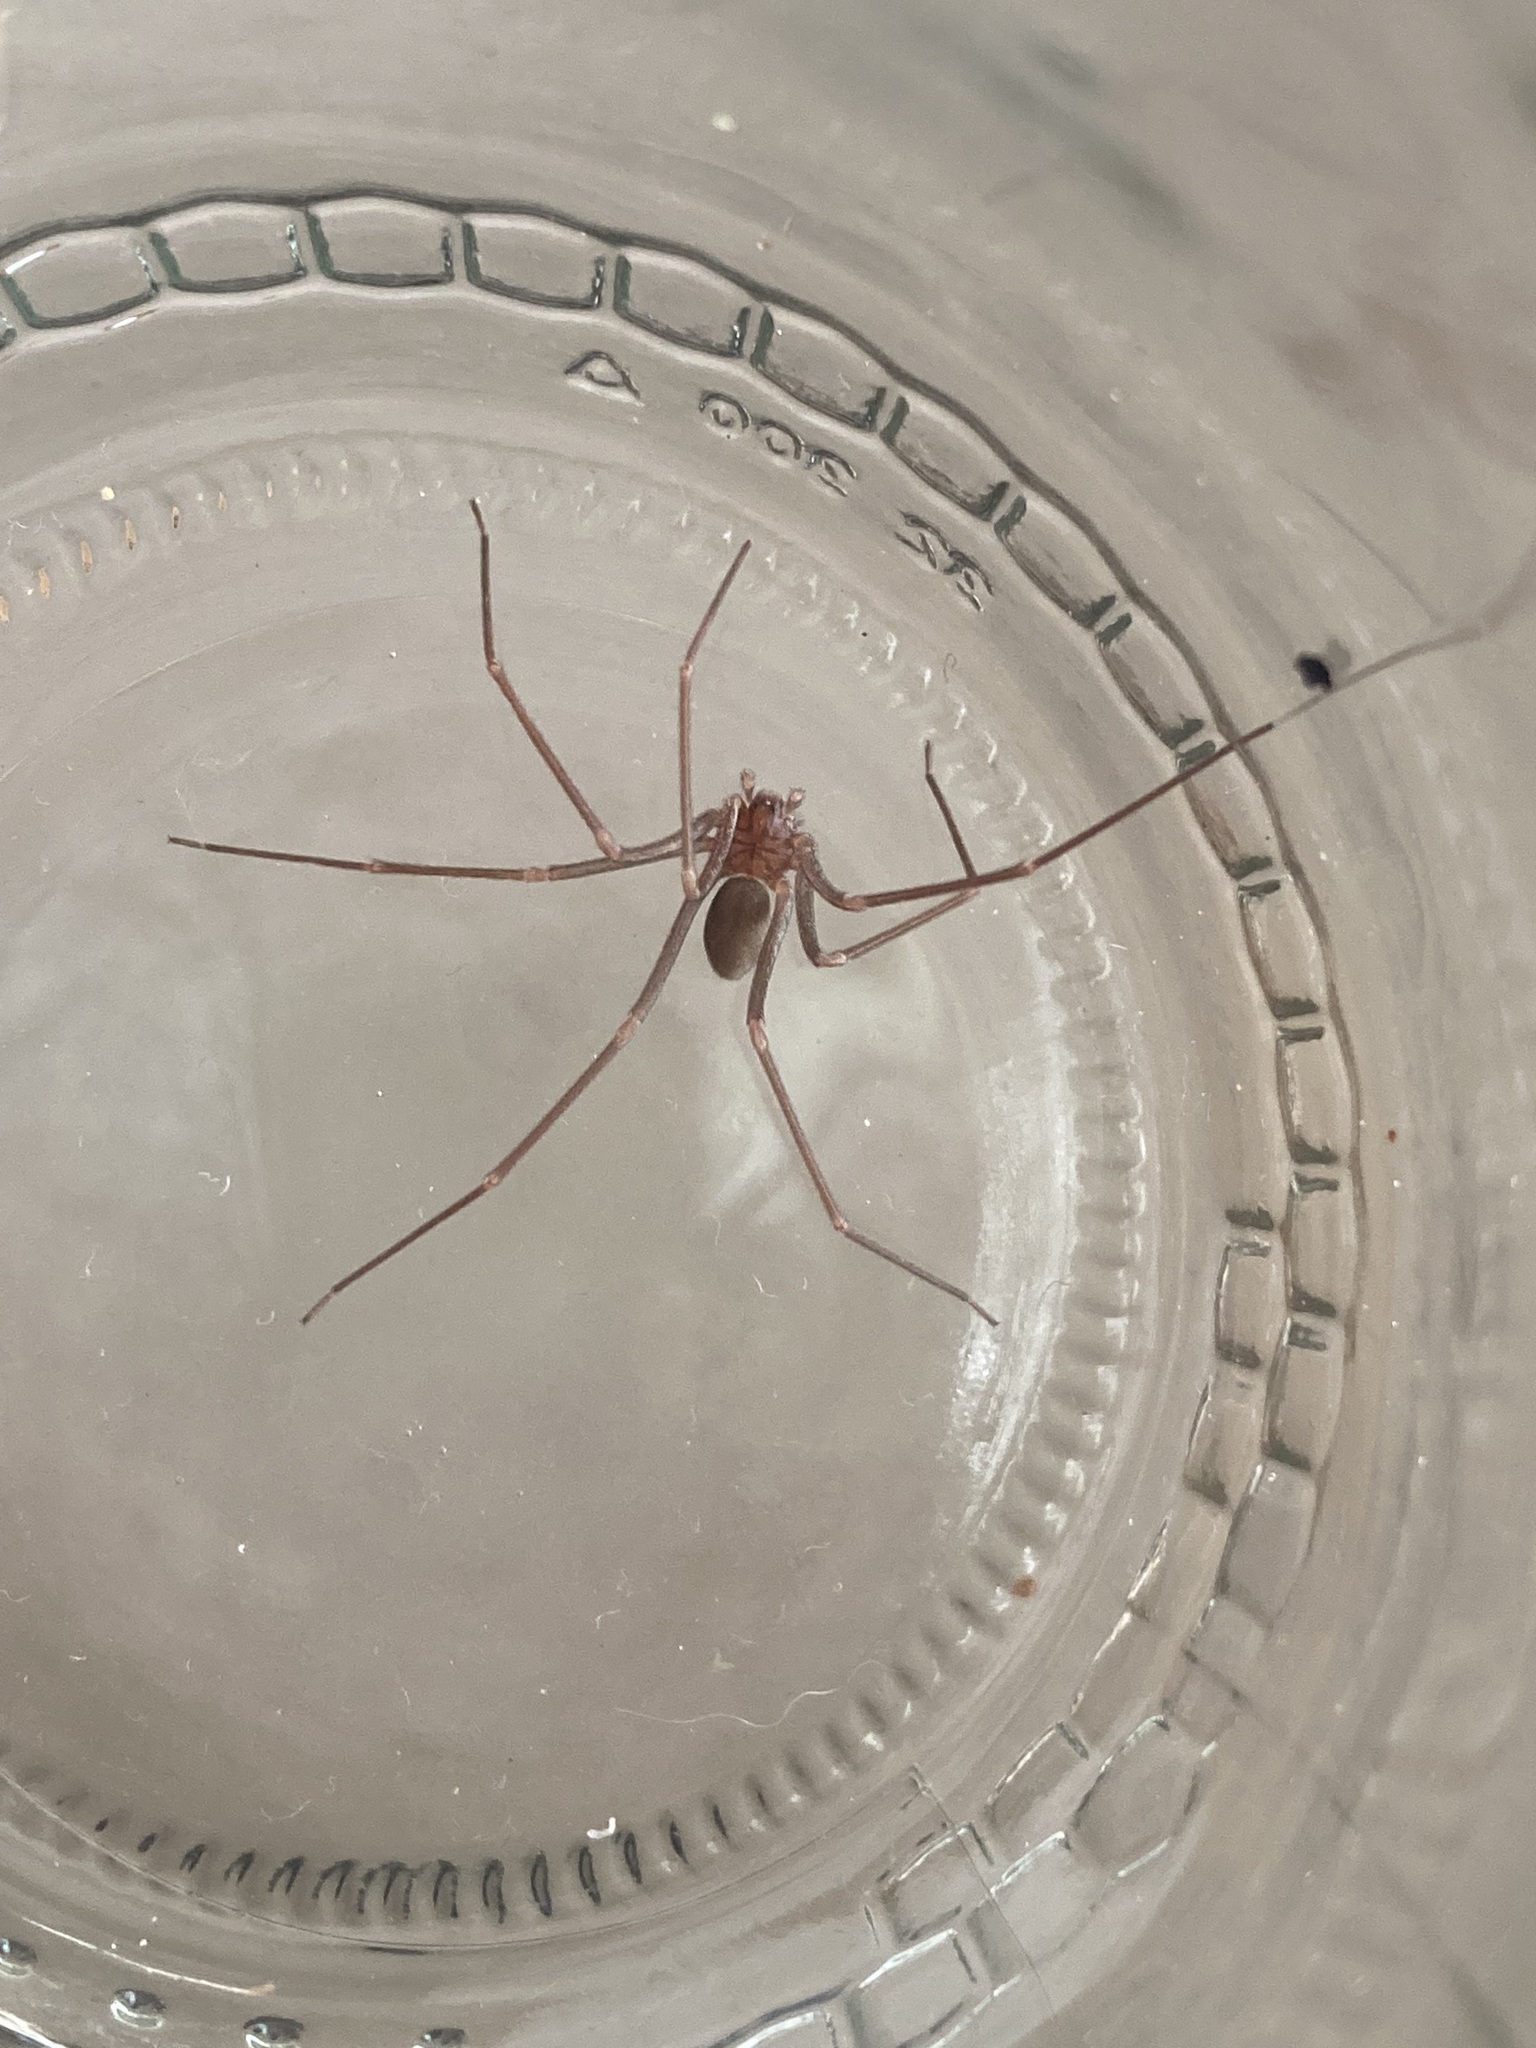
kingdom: Animalia
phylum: Arthropoda
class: Arachnida
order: Araneae
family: Sicariidae
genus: Loxosceles
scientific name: Loxosceles spinulosa
